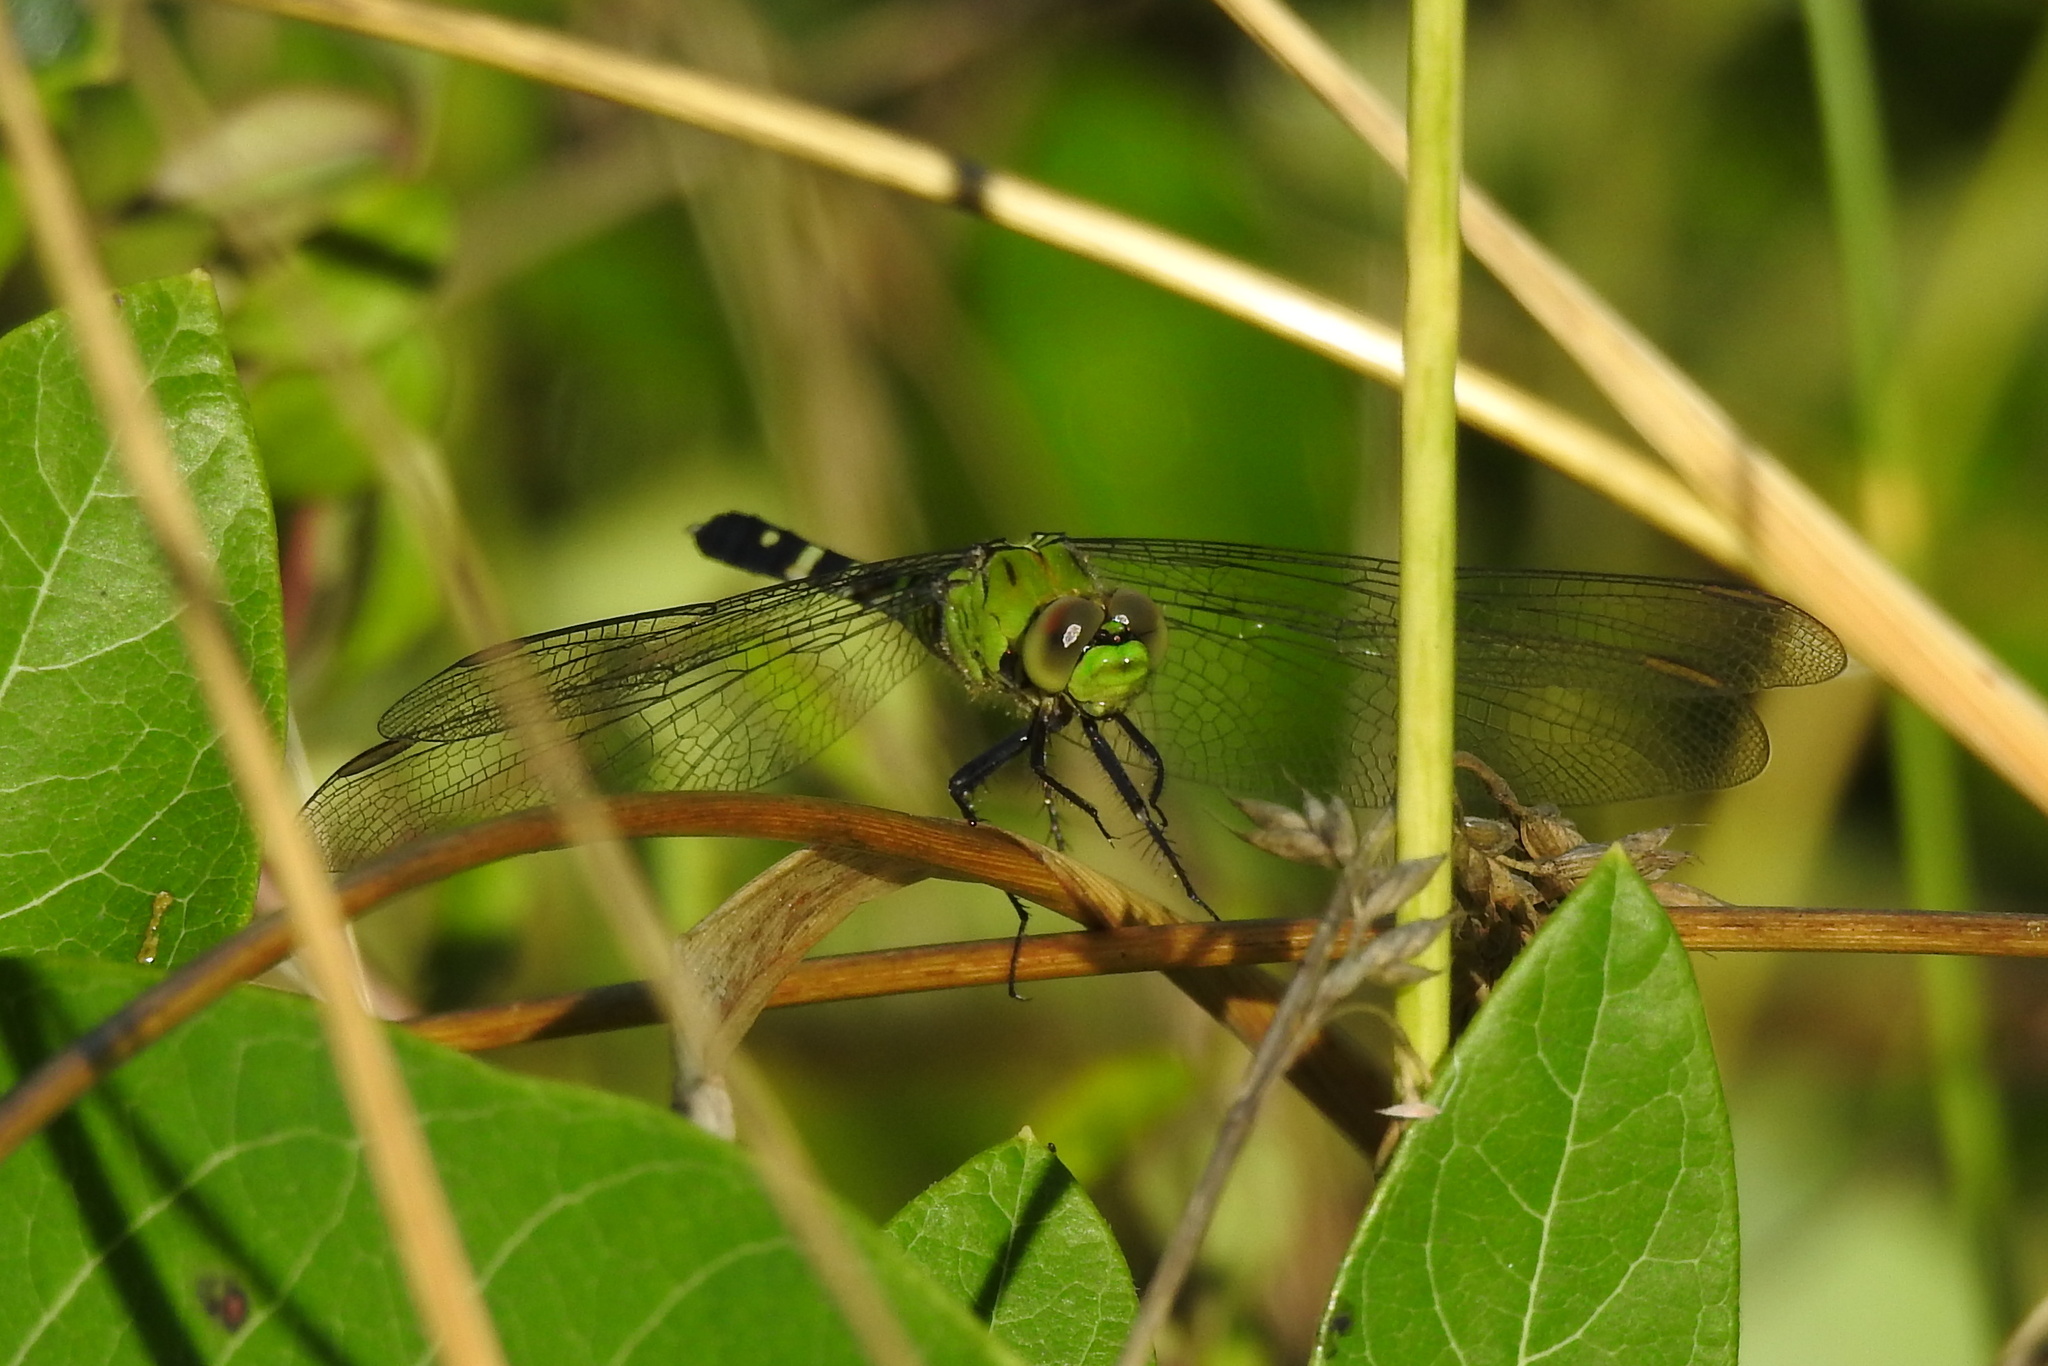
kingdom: Animalia
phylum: Arthropoda
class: Insecta
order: Odonata
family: Libellulidae
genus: Erythemis
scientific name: Erythemis simplicicollis
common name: Eastern pondhawk
